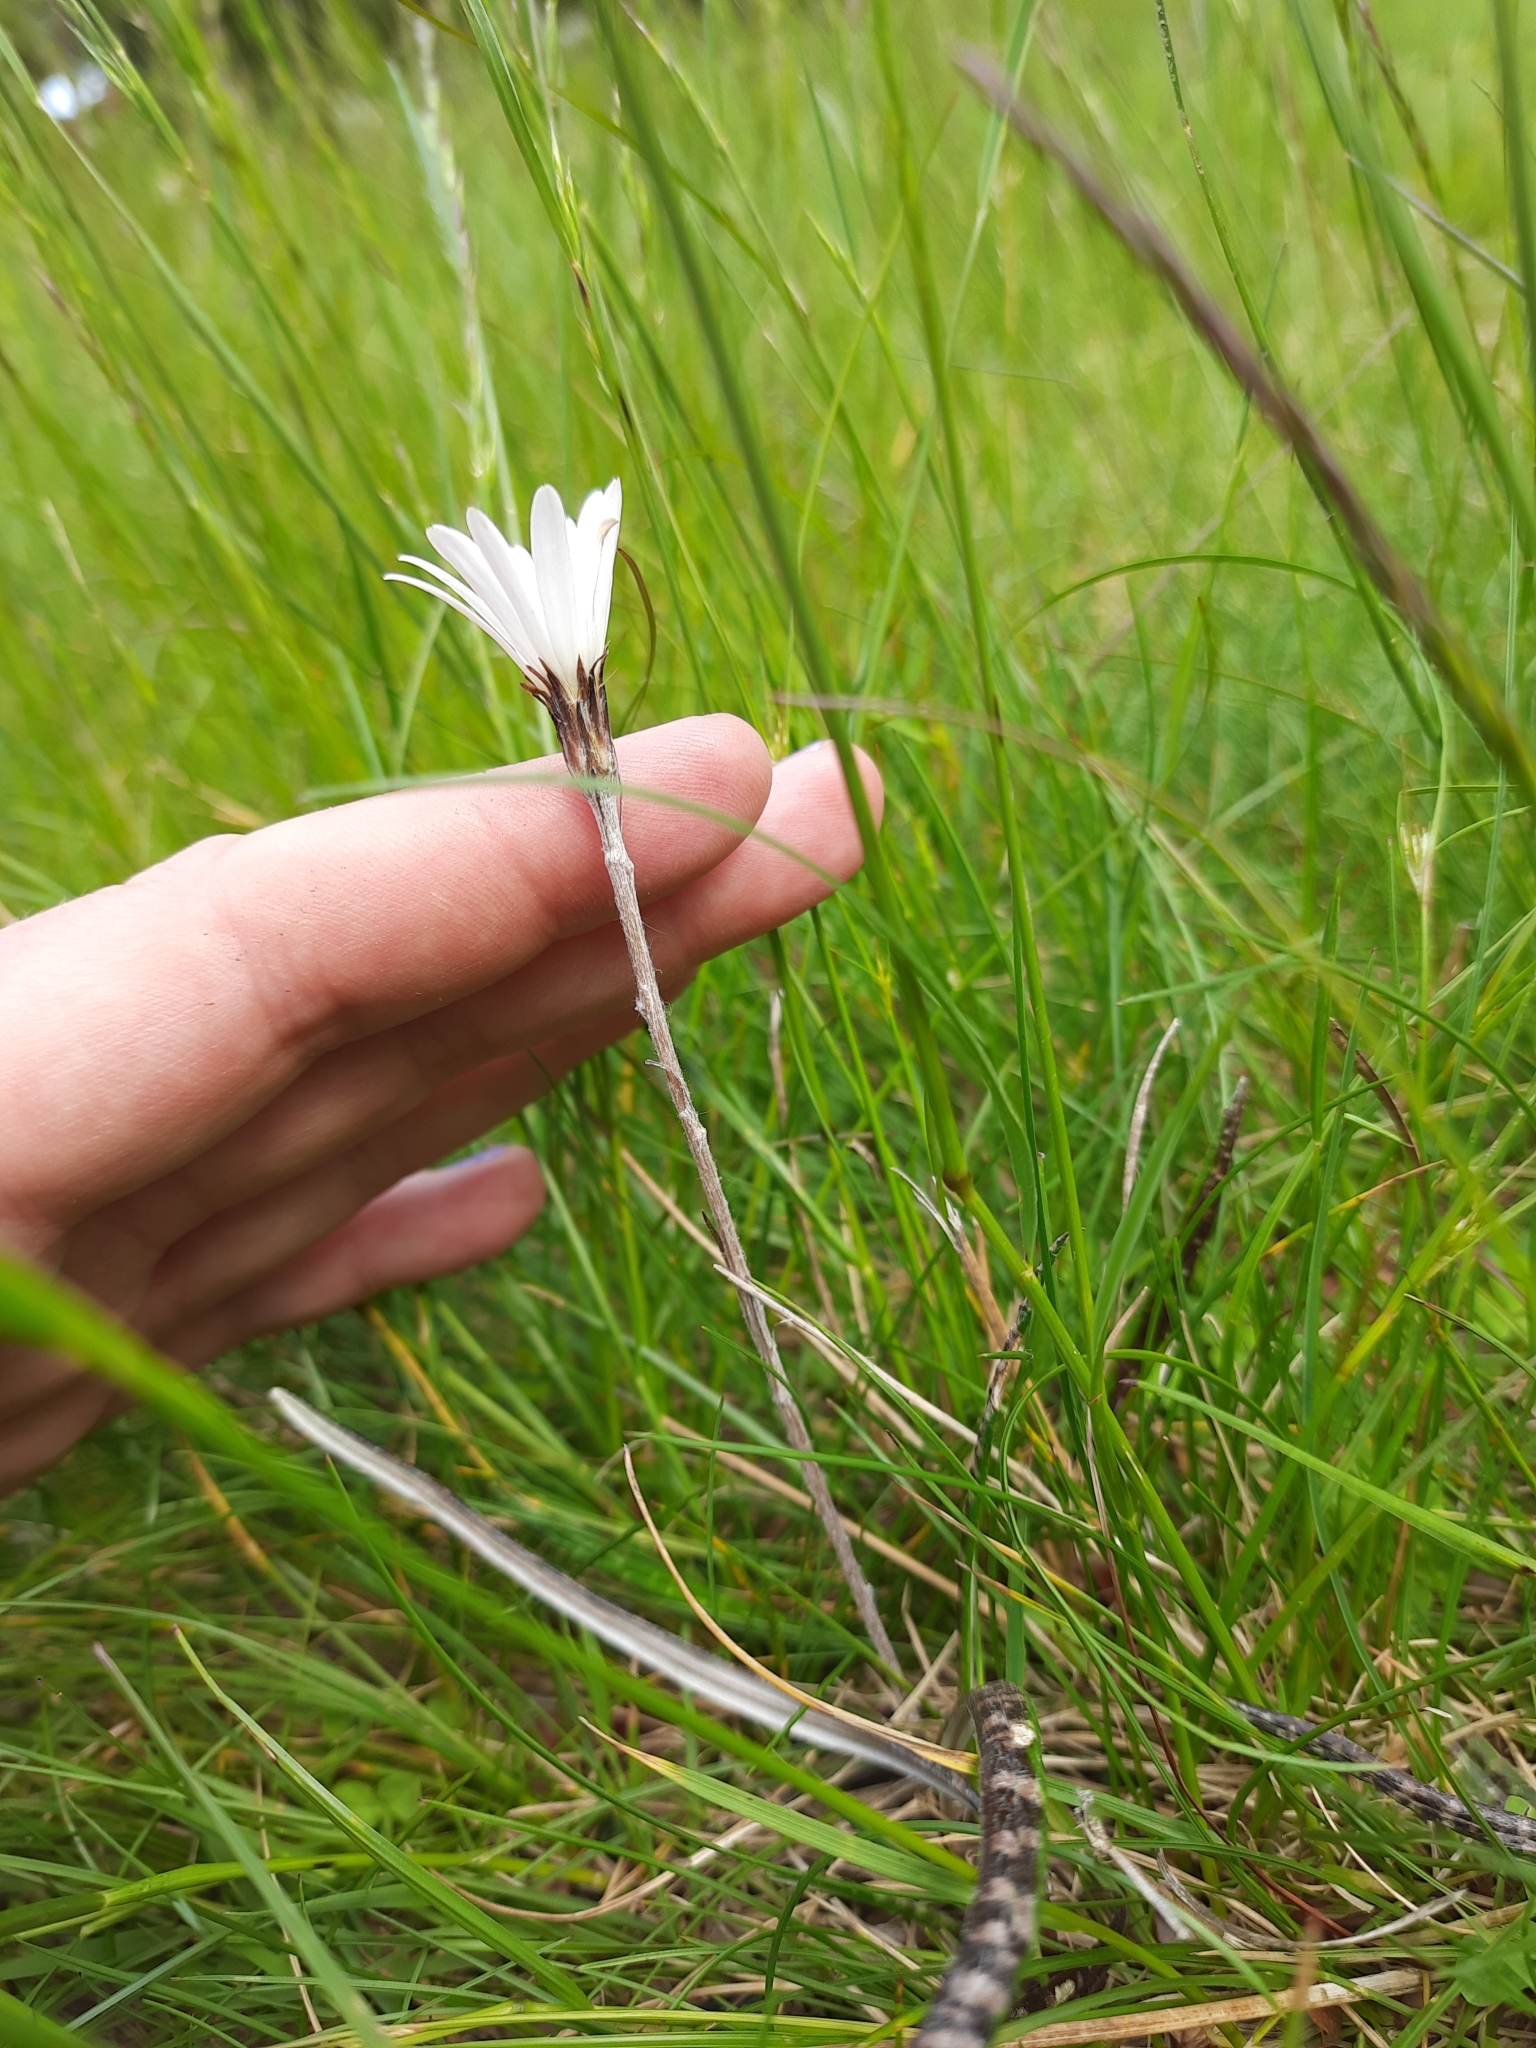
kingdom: Plantae
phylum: Tracheophyta
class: Magnoliopsida
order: Asterales
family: Asteraceae
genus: Celmisia
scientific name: Celmisia gracilenta
